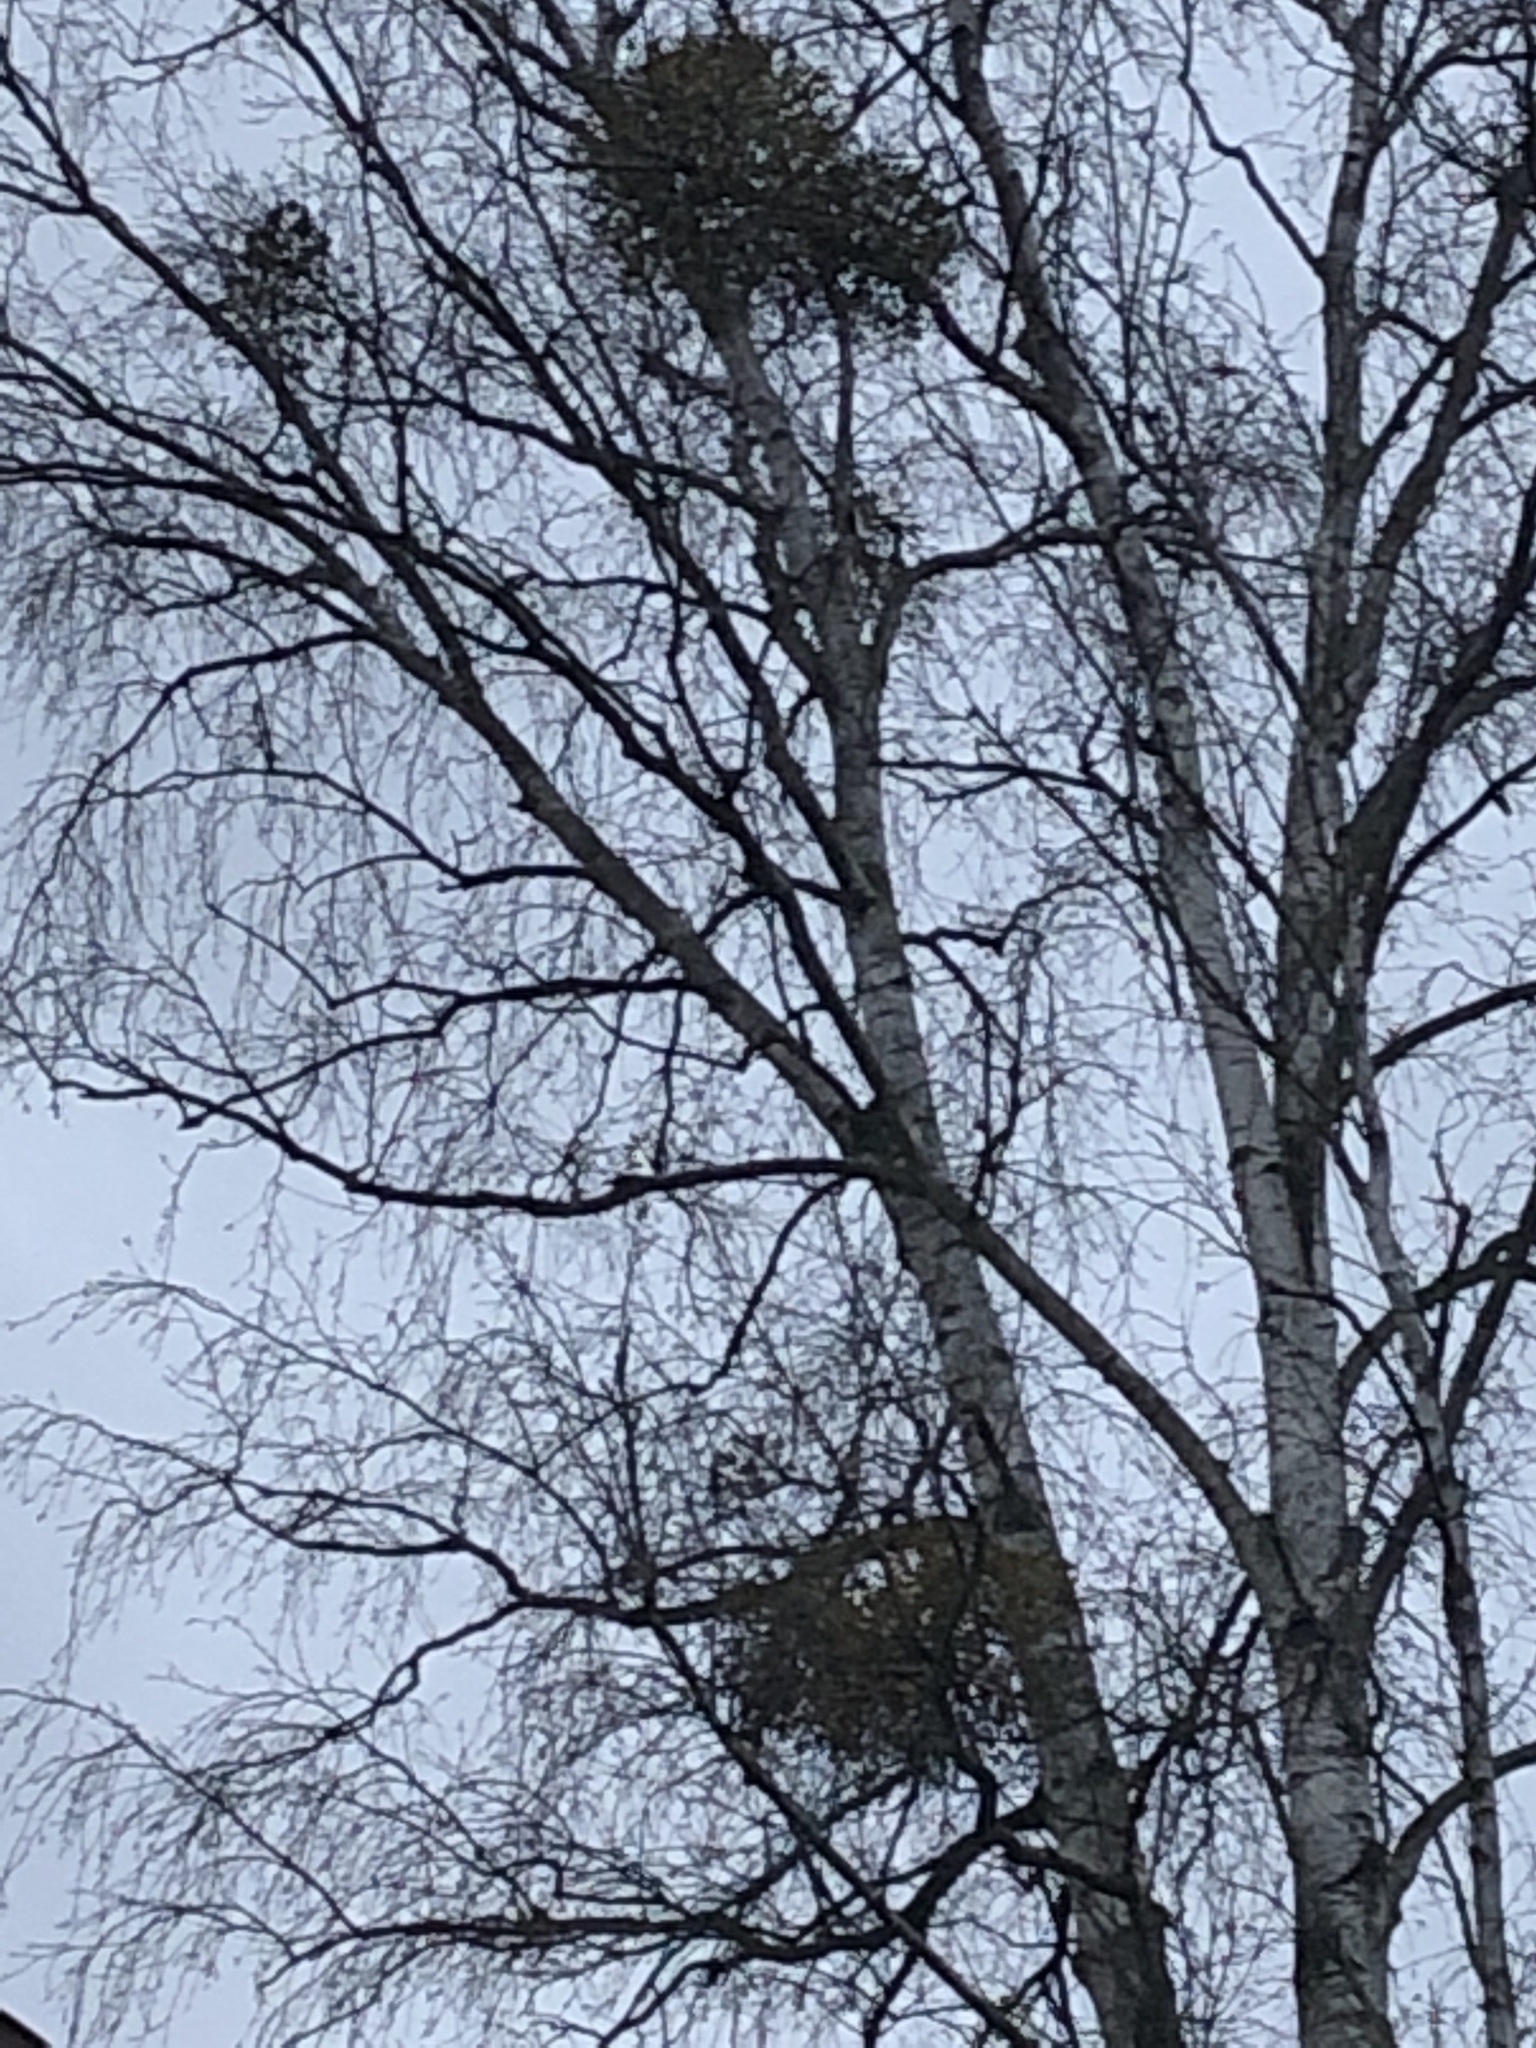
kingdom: Plantae
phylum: Tracheophyta
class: Magnoliopsida
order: Santalales
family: Viscaceae
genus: Viscum
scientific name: Viscum album
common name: Mistletoe
